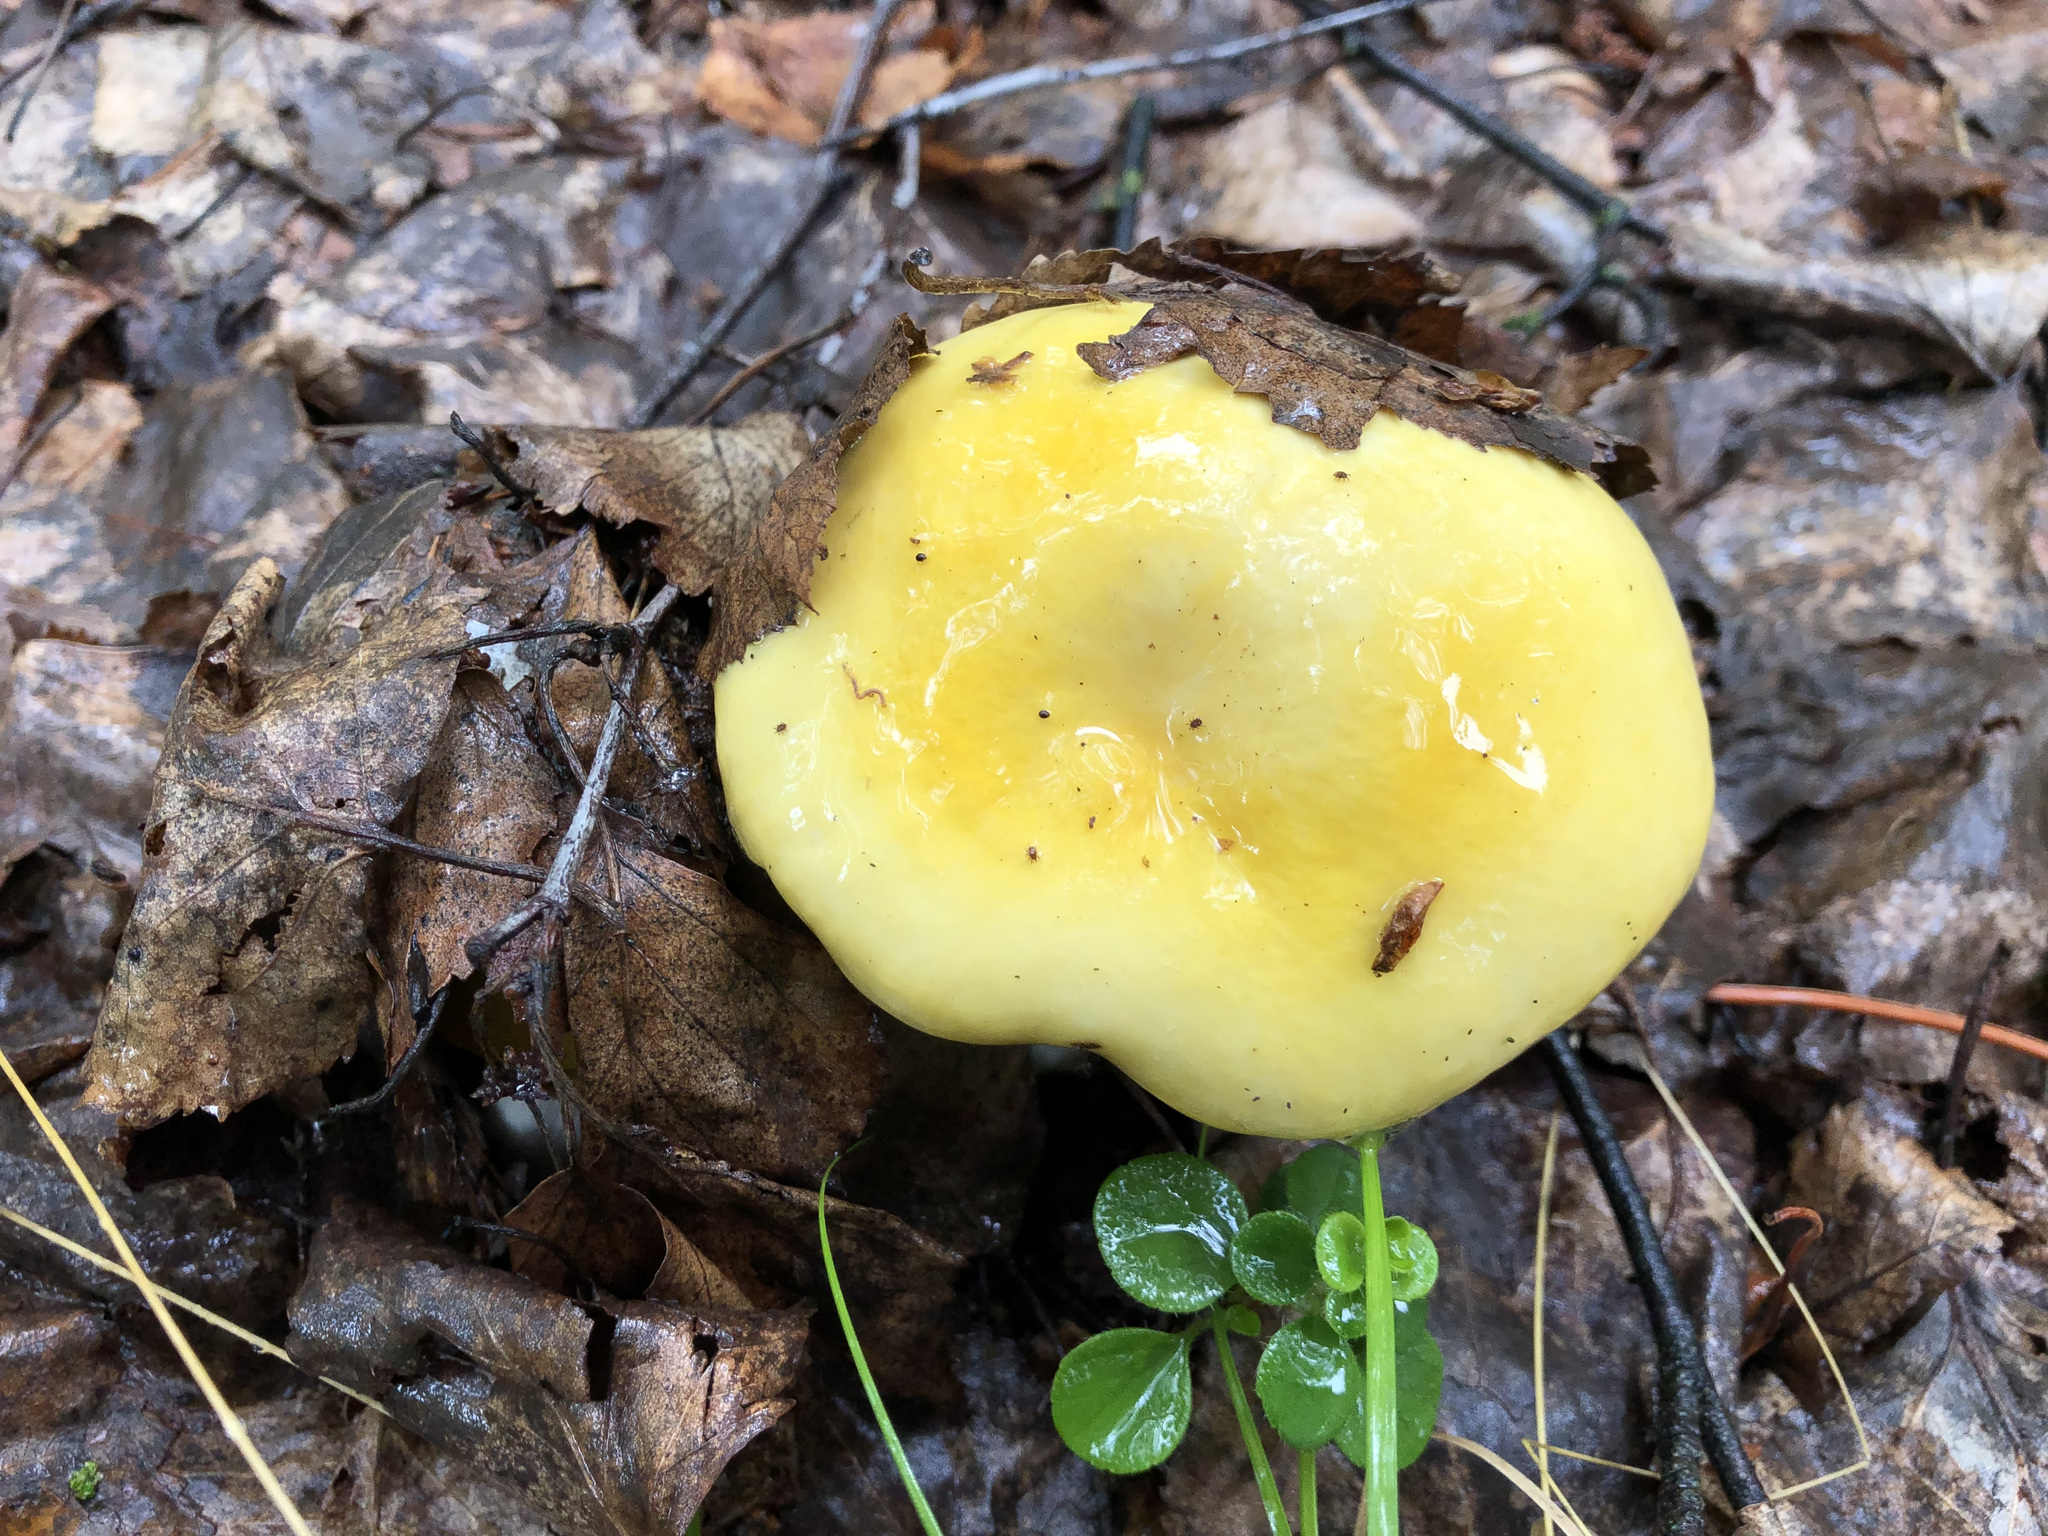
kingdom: Fungi
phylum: Basidiomycota
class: Agaricomycetes
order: Russulales
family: Russulaceae
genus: Russula
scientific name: Russula claroflava
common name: The yellow swamp brittlegill
